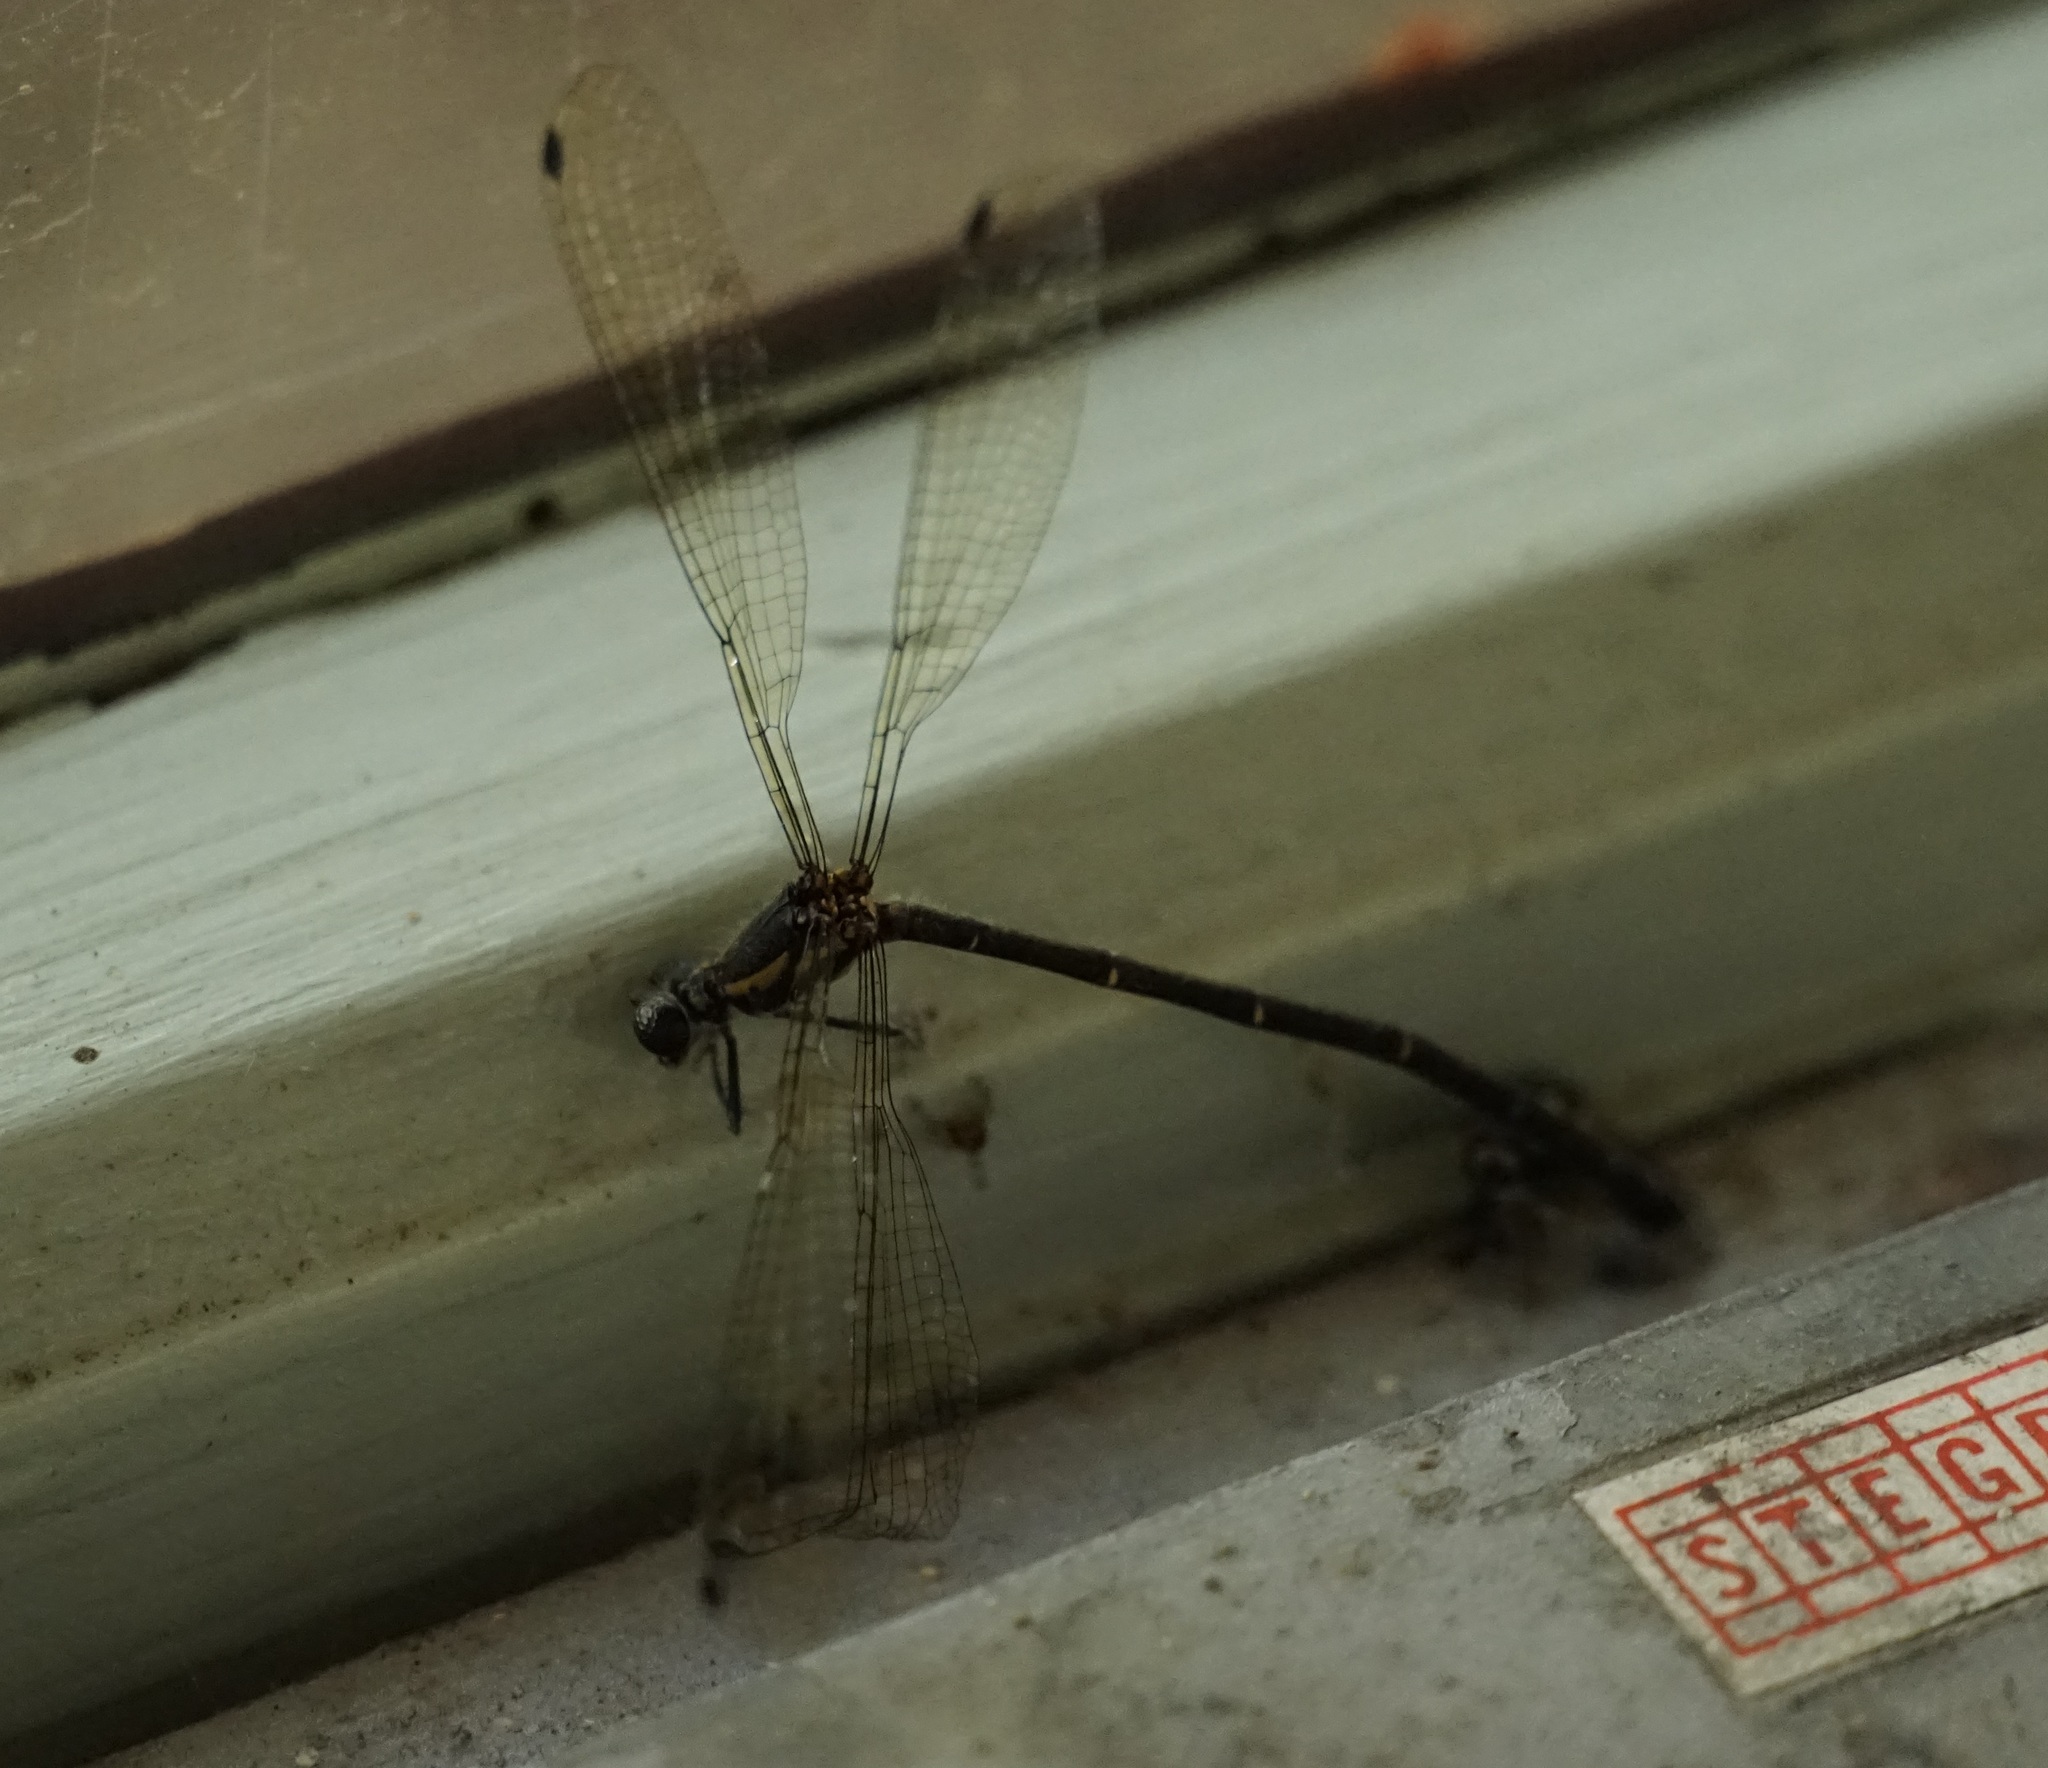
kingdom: Animalia
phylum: Arthropoda
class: Insecta
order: Odonata
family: Argiolestidae
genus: Austroargiolestes
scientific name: Austroargiolestes
